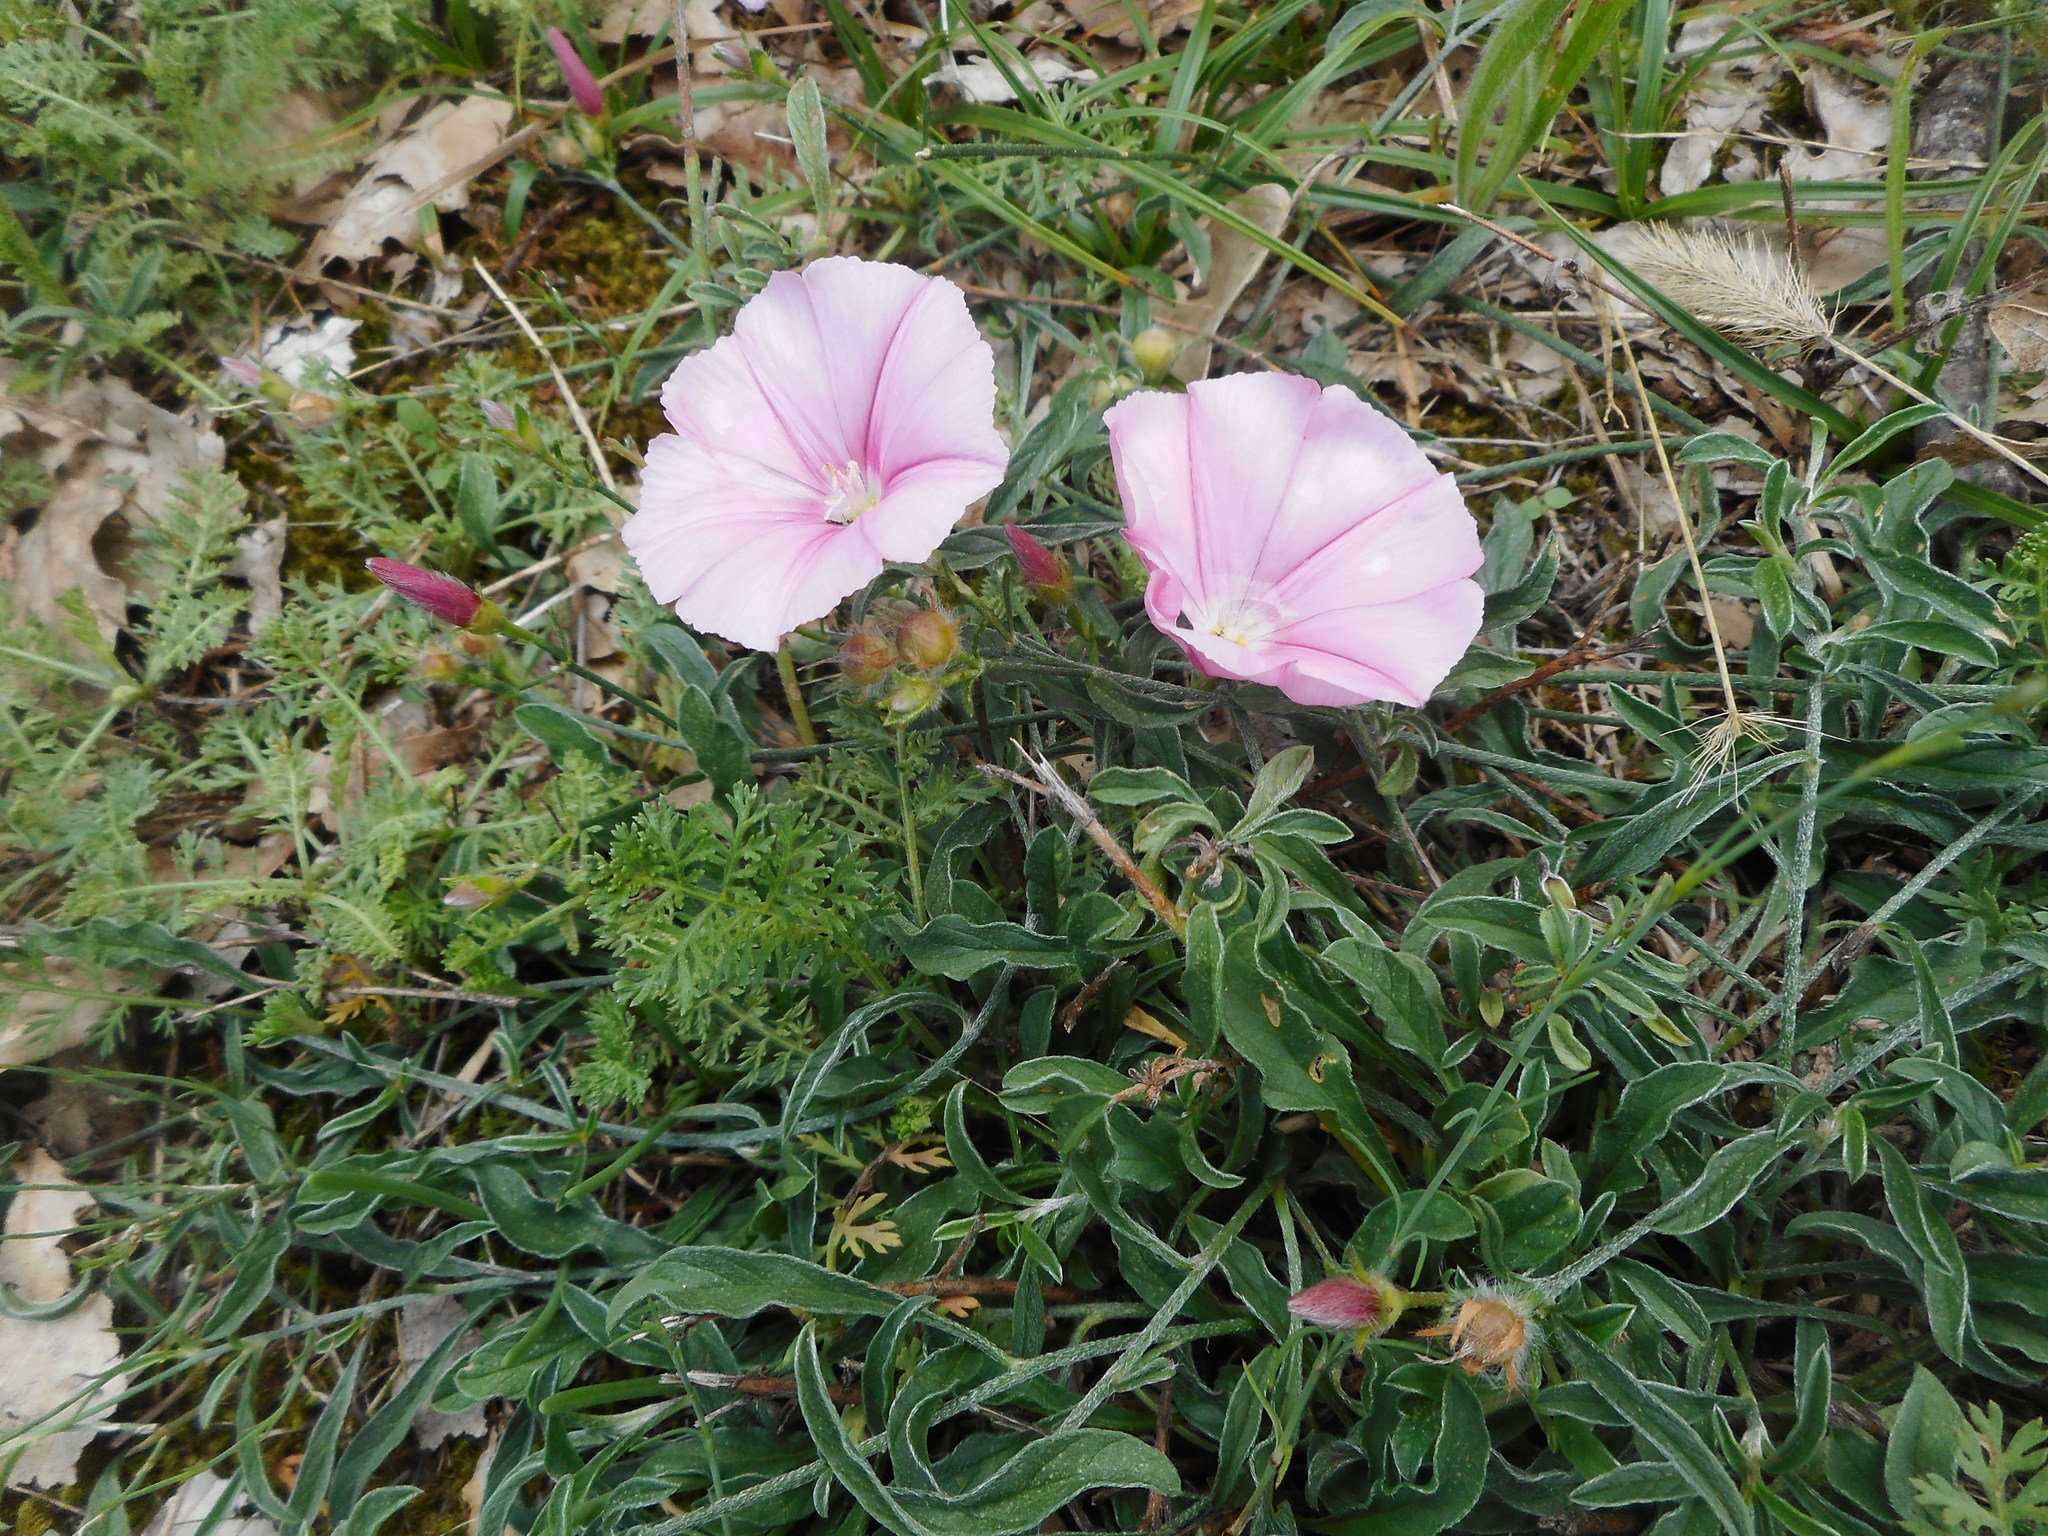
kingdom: Plantae
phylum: Tracheophyta
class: Magnoliopsida
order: Solanales
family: Convolvulaceae
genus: Convolvulus
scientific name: Convolvulus cantabrica
